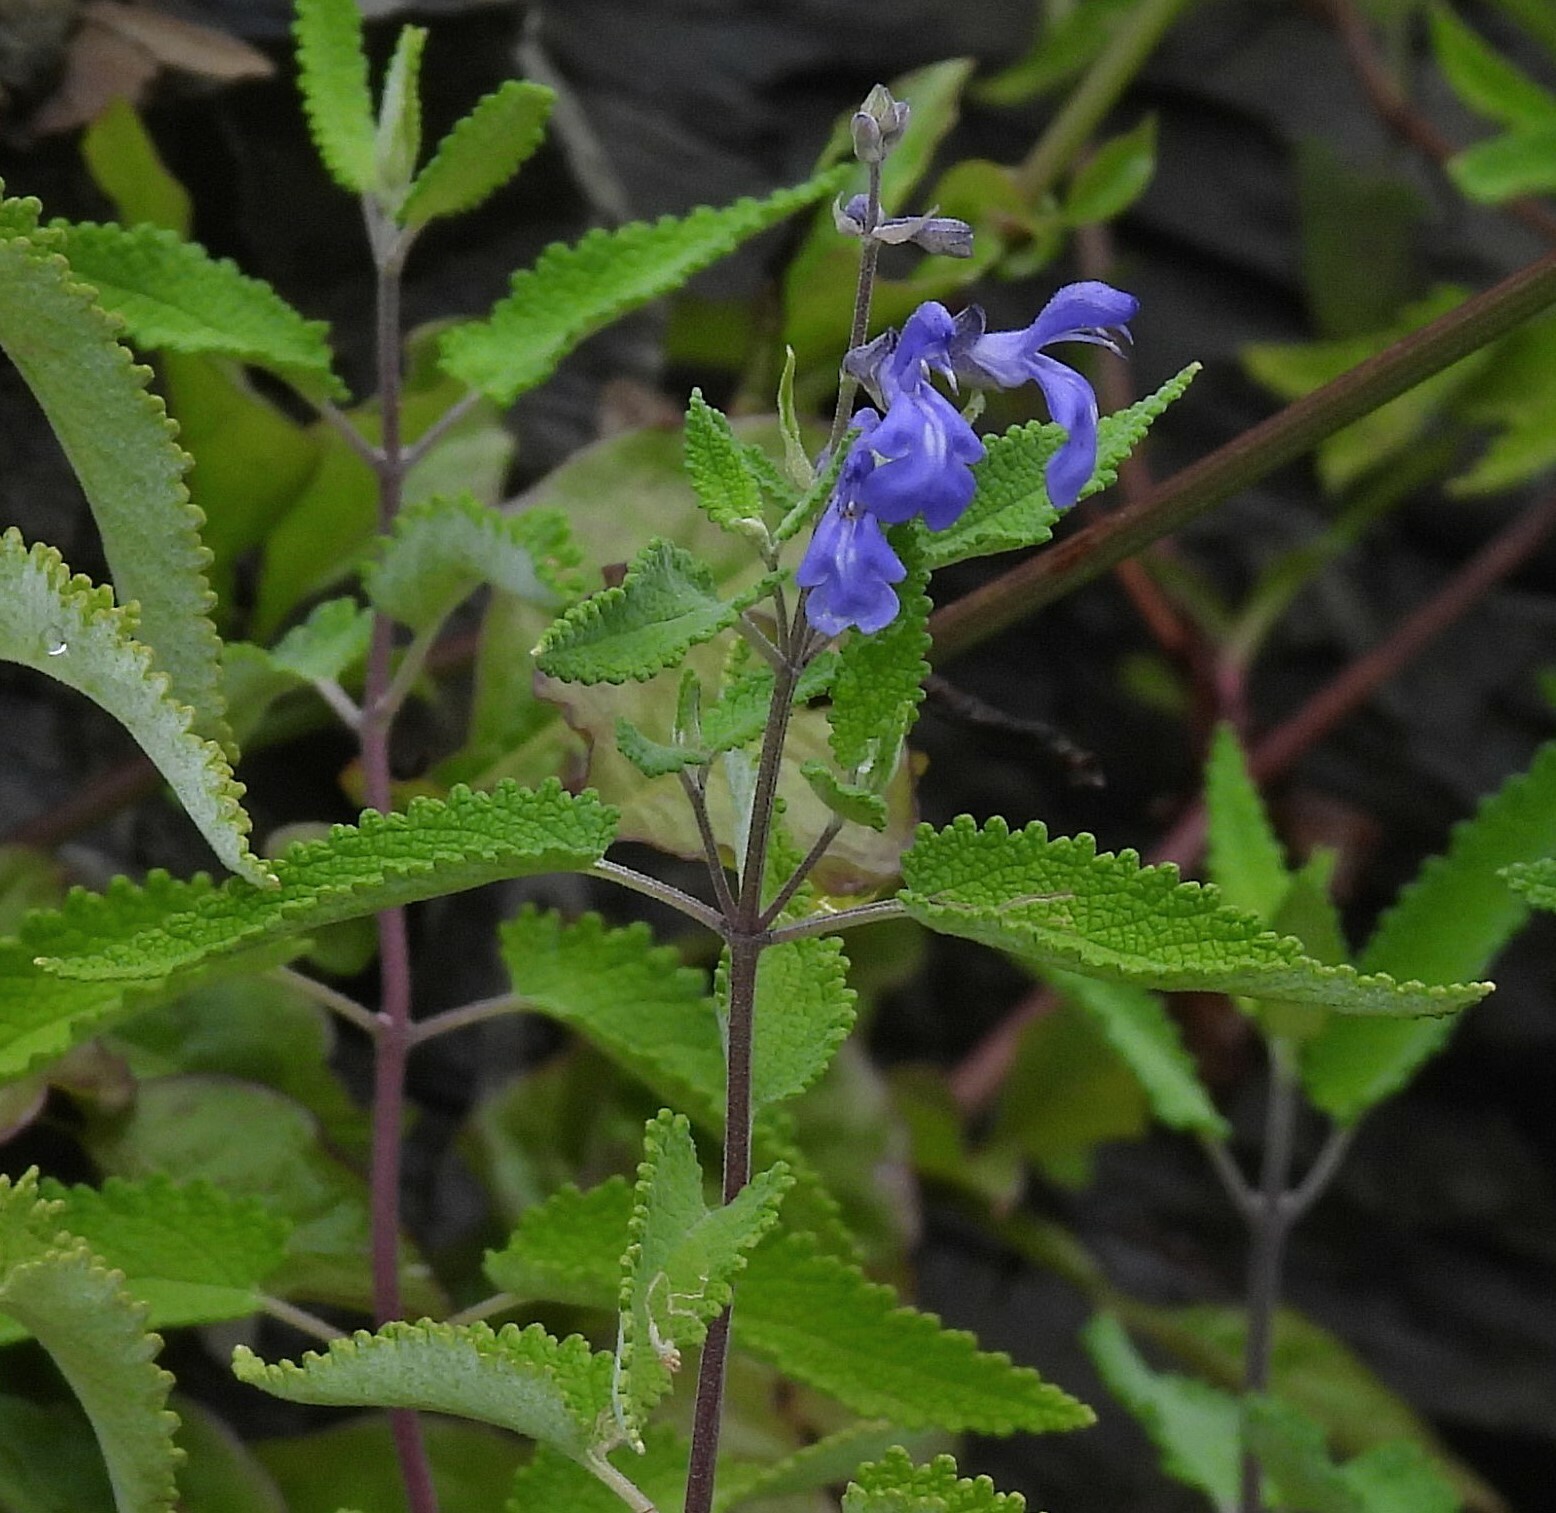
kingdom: Plantae
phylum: Tracheophyta
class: Magnoliopsida
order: Lamiales
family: Lamiaceae
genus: Salvia
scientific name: Salvia cuspidata
